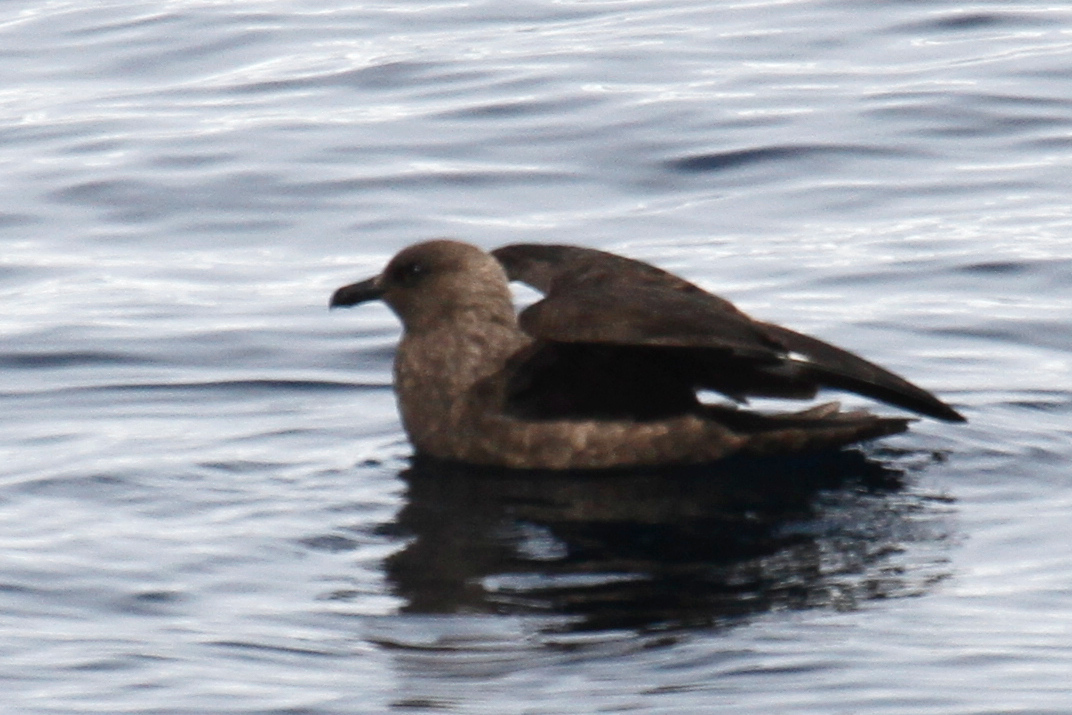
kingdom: Animalia
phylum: Chordata
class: Aves
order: Charadriiformes
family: Stercorariidae
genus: Stercorarius
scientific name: Stercorarius maccormicki
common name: South polar skua
